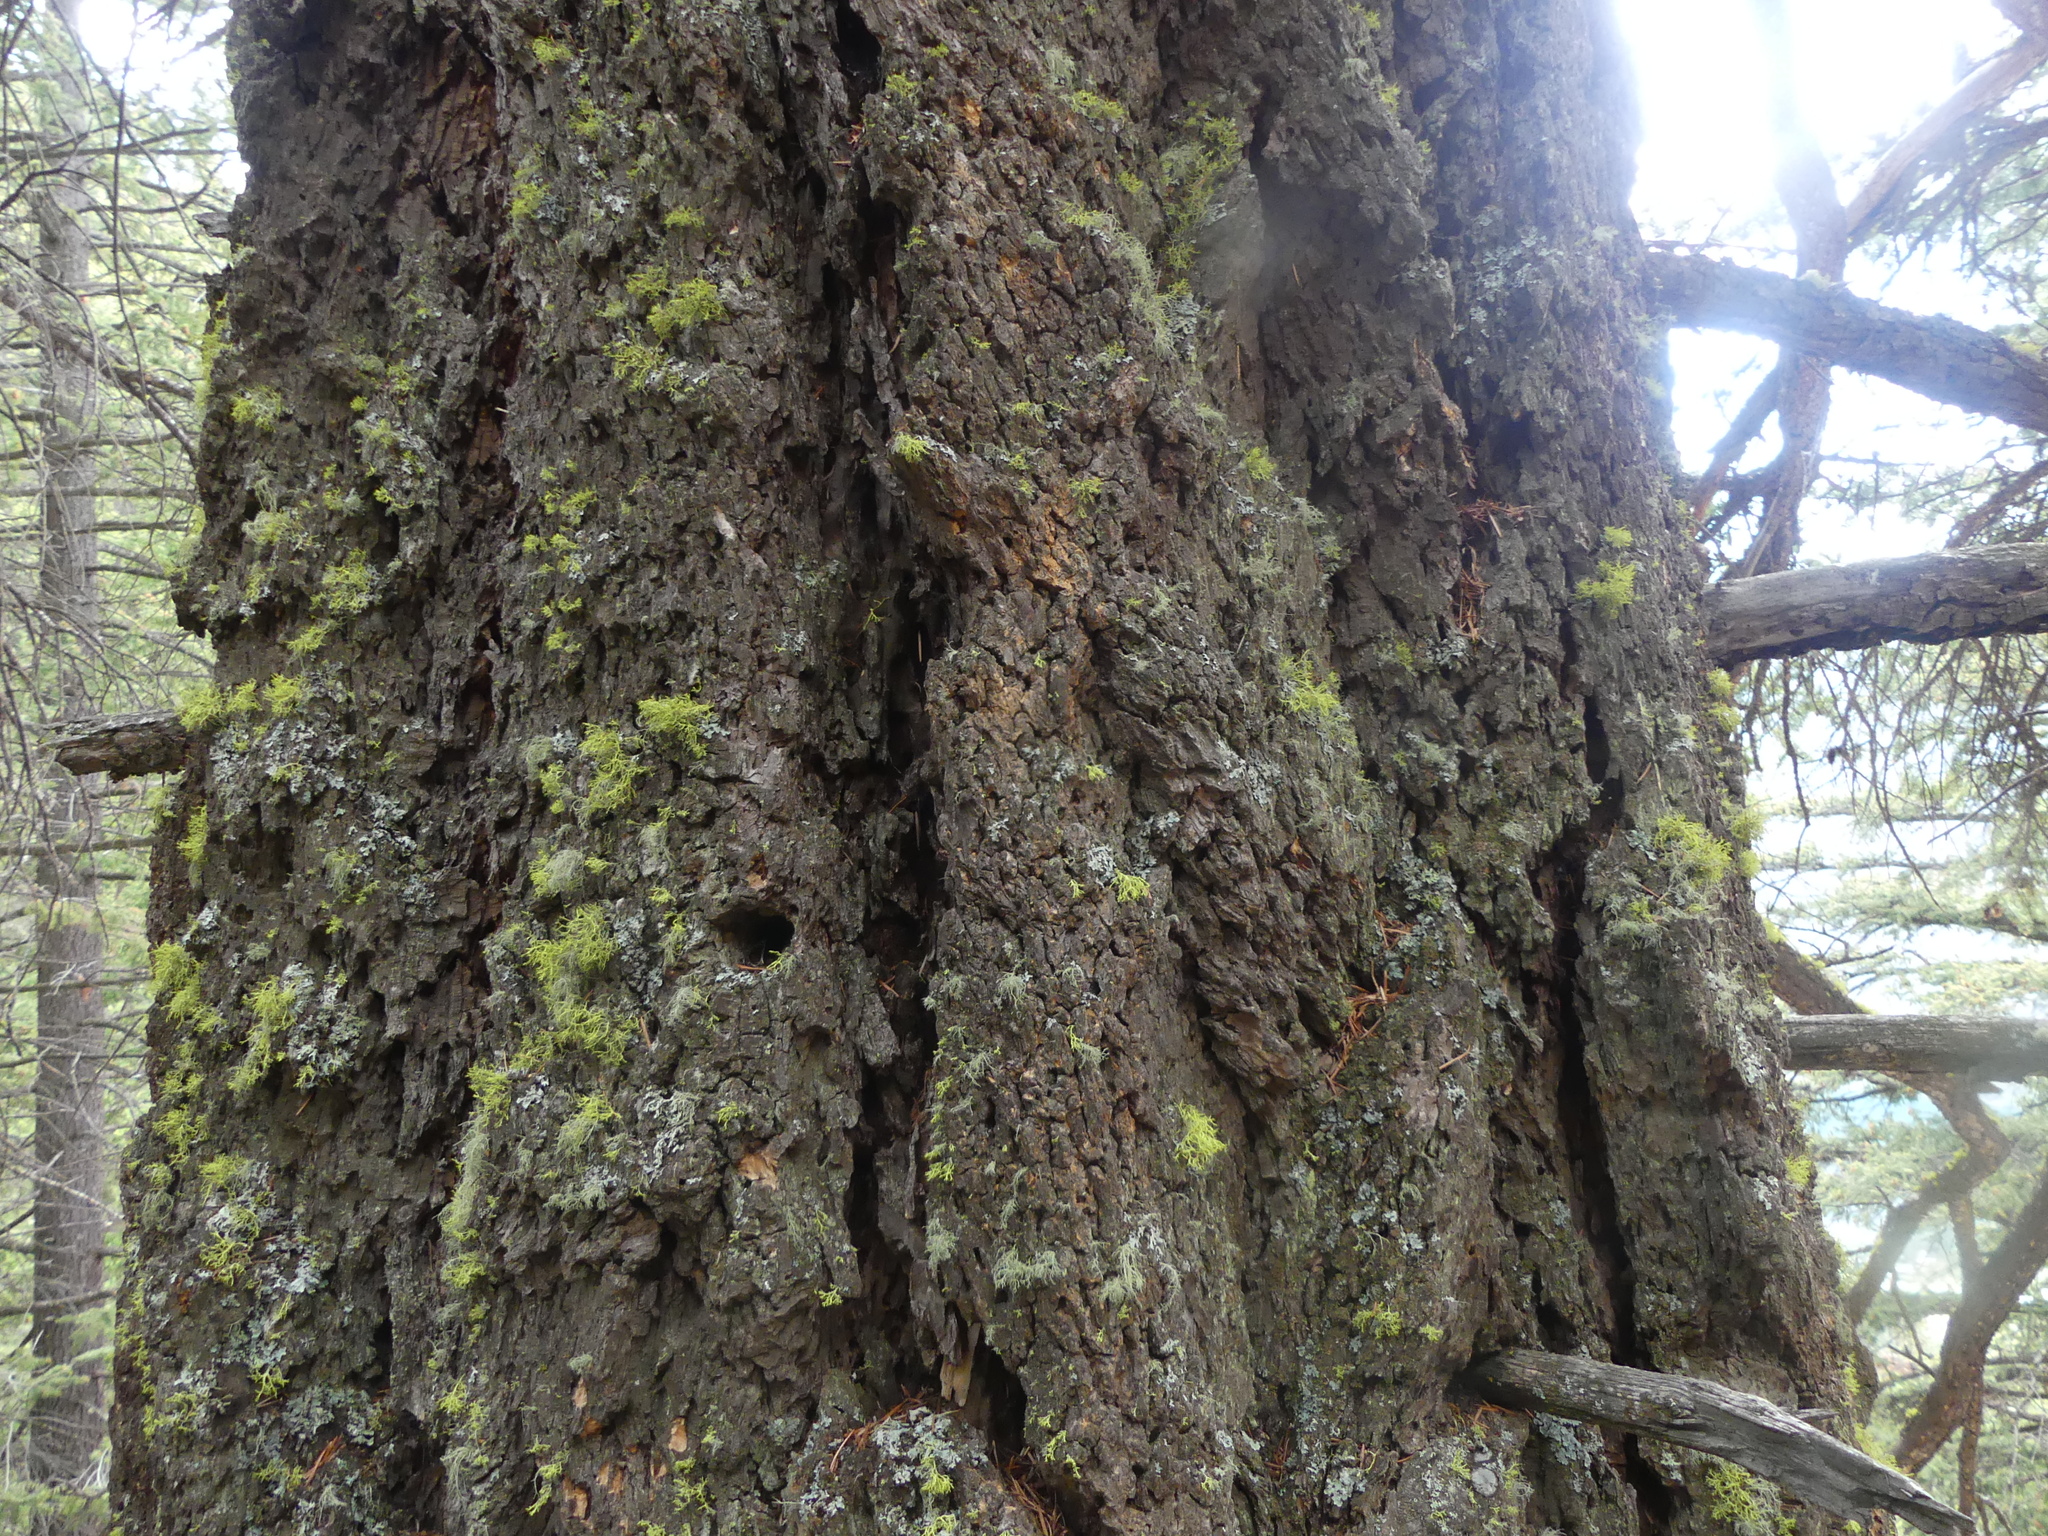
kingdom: Plantae
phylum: Tracheophyta
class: Pinopsida
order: Pinales
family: Pinaceae
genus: Pseudotsuga
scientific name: Pseudotsuga menziesii
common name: Douglas fir
